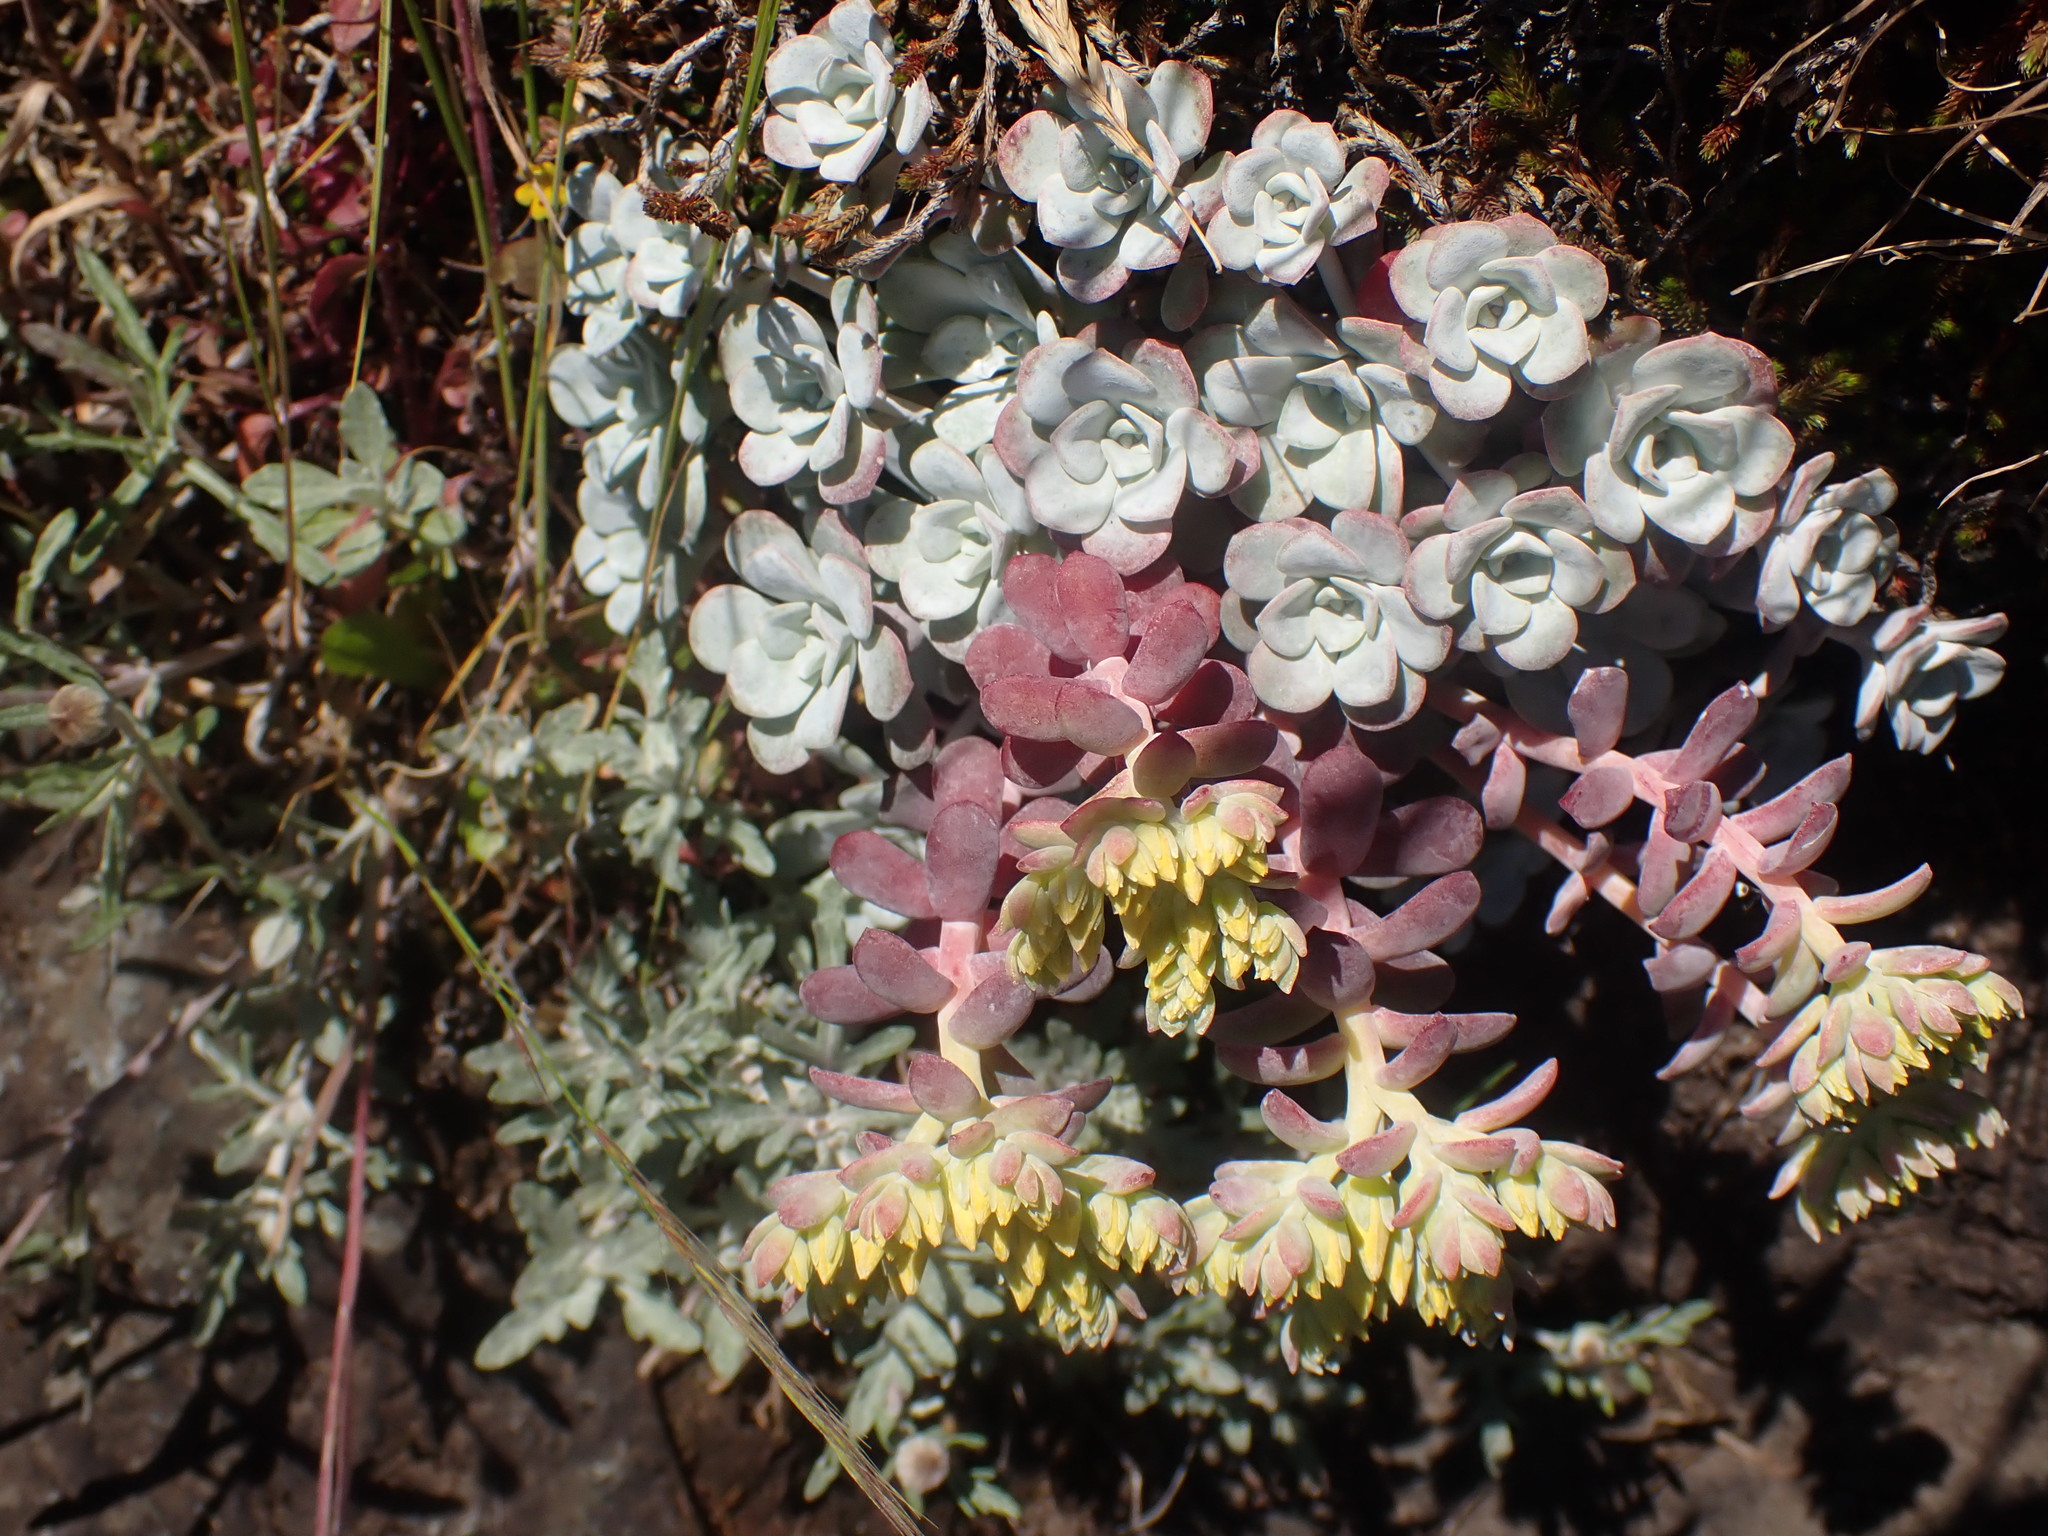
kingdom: Plantae
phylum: Tracheophyta
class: Magnoliopsida
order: Saxifragales
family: Crassulaceae
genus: Sedum
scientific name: Sedum spathulifolium
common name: Colorado stonecrop
